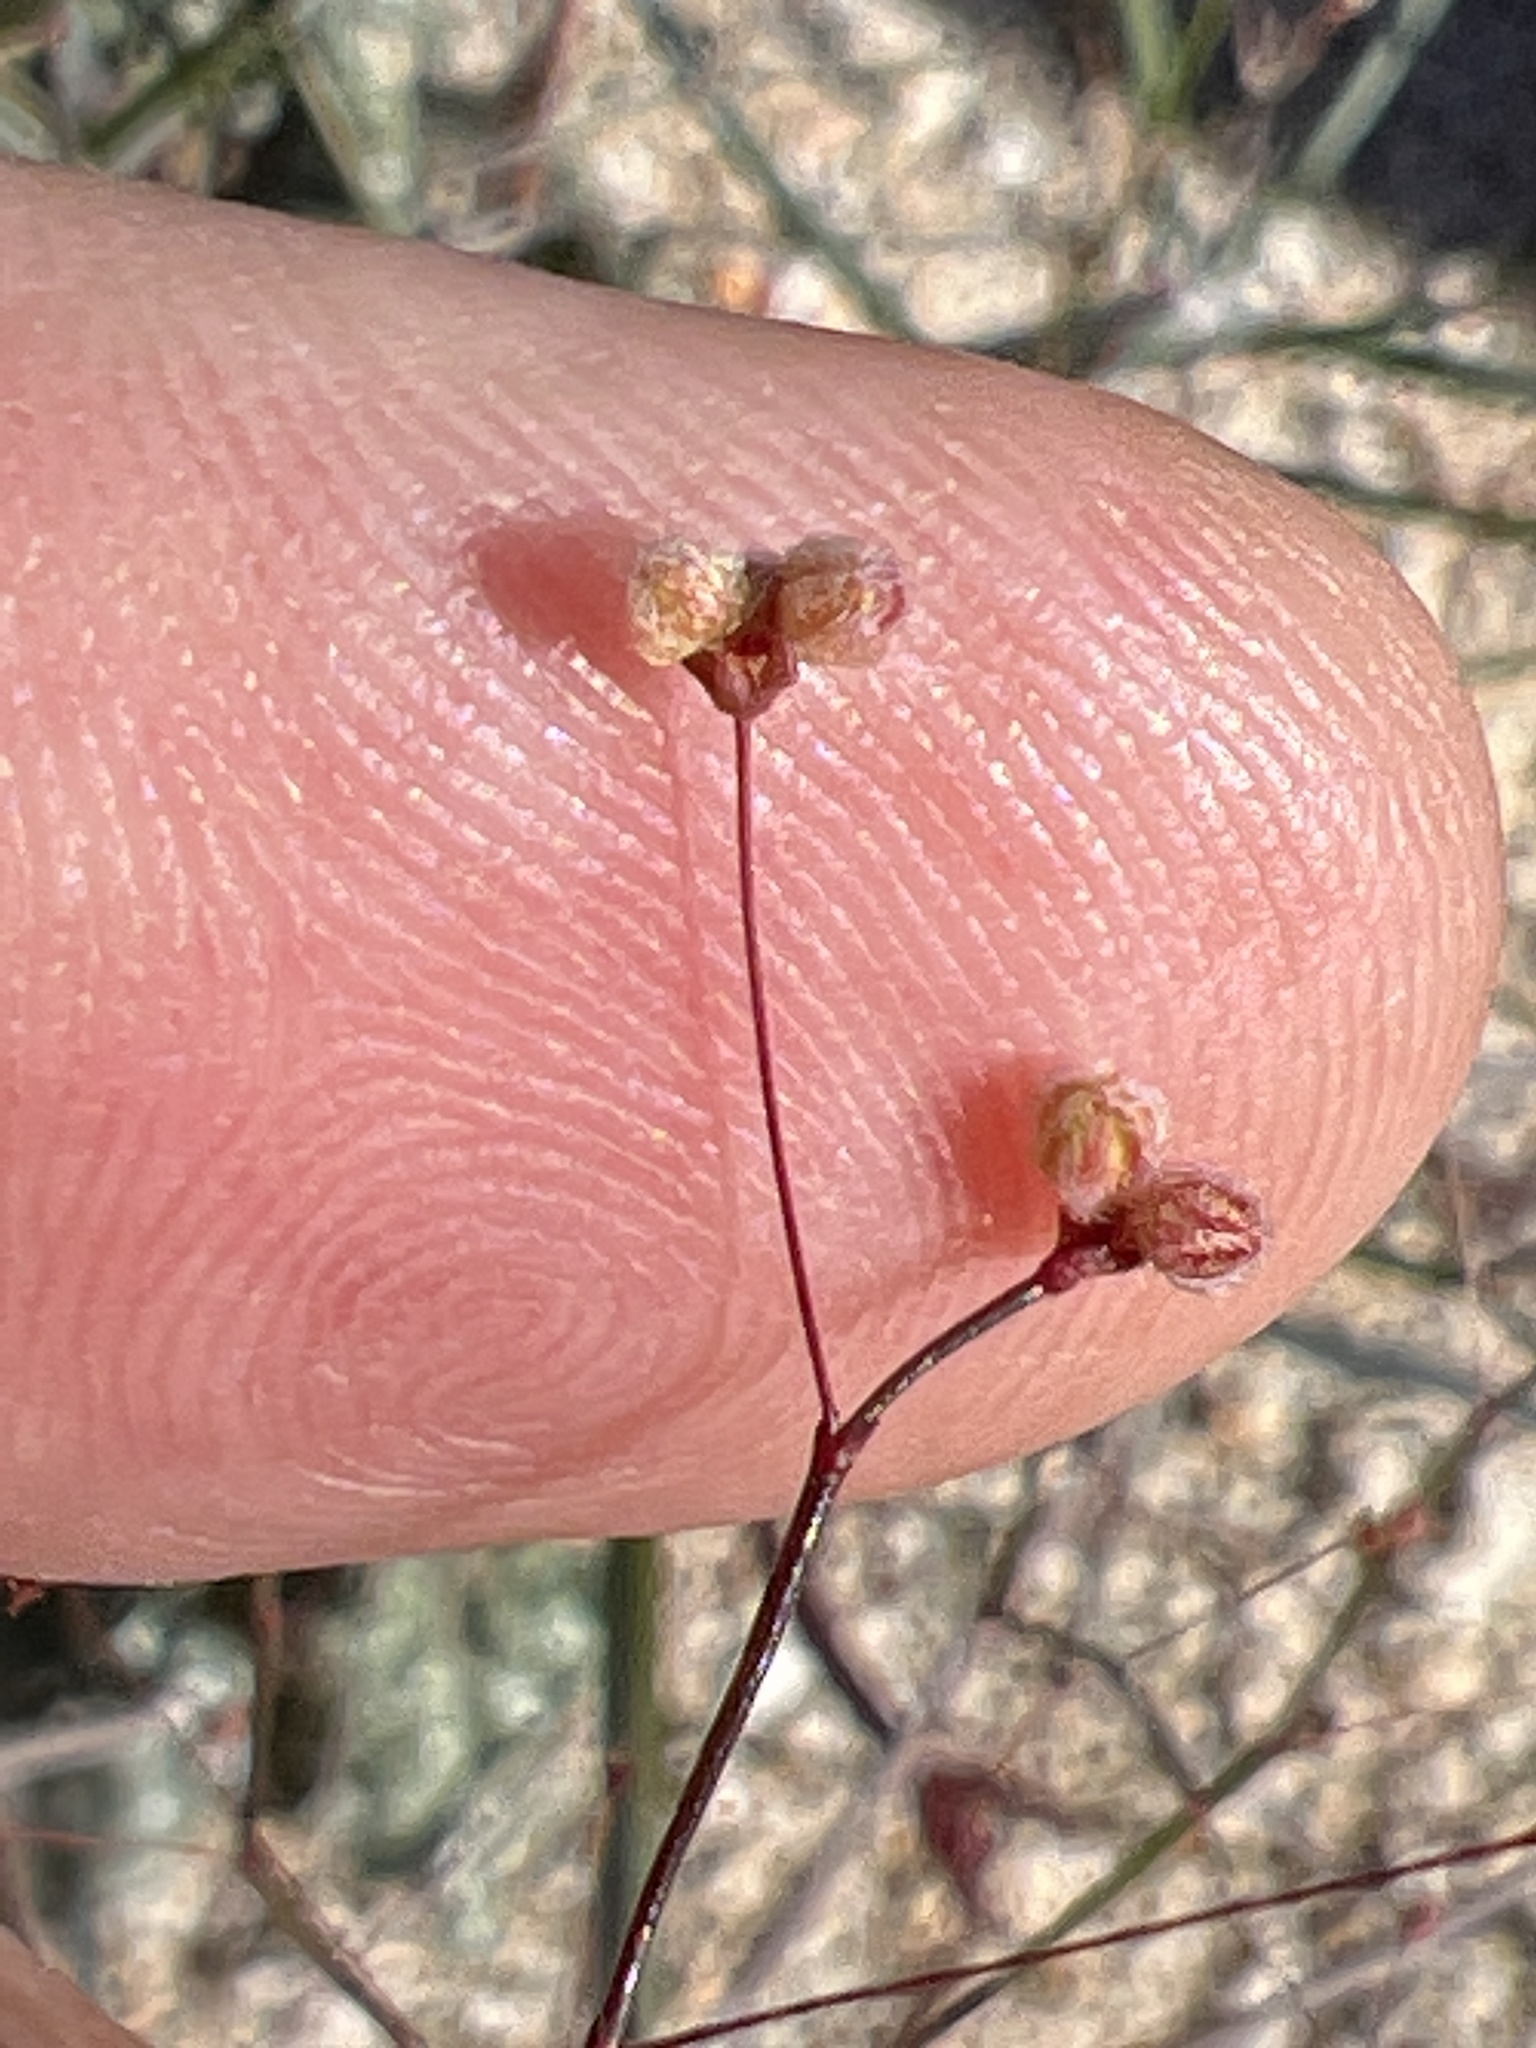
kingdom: Plantae
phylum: Tracheophyta
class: Magnoliopsida
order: Caryophyllales
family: Polygonaceae
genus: Eriogonum
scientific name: Eriogonum inflatum
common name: Desert trumpet
